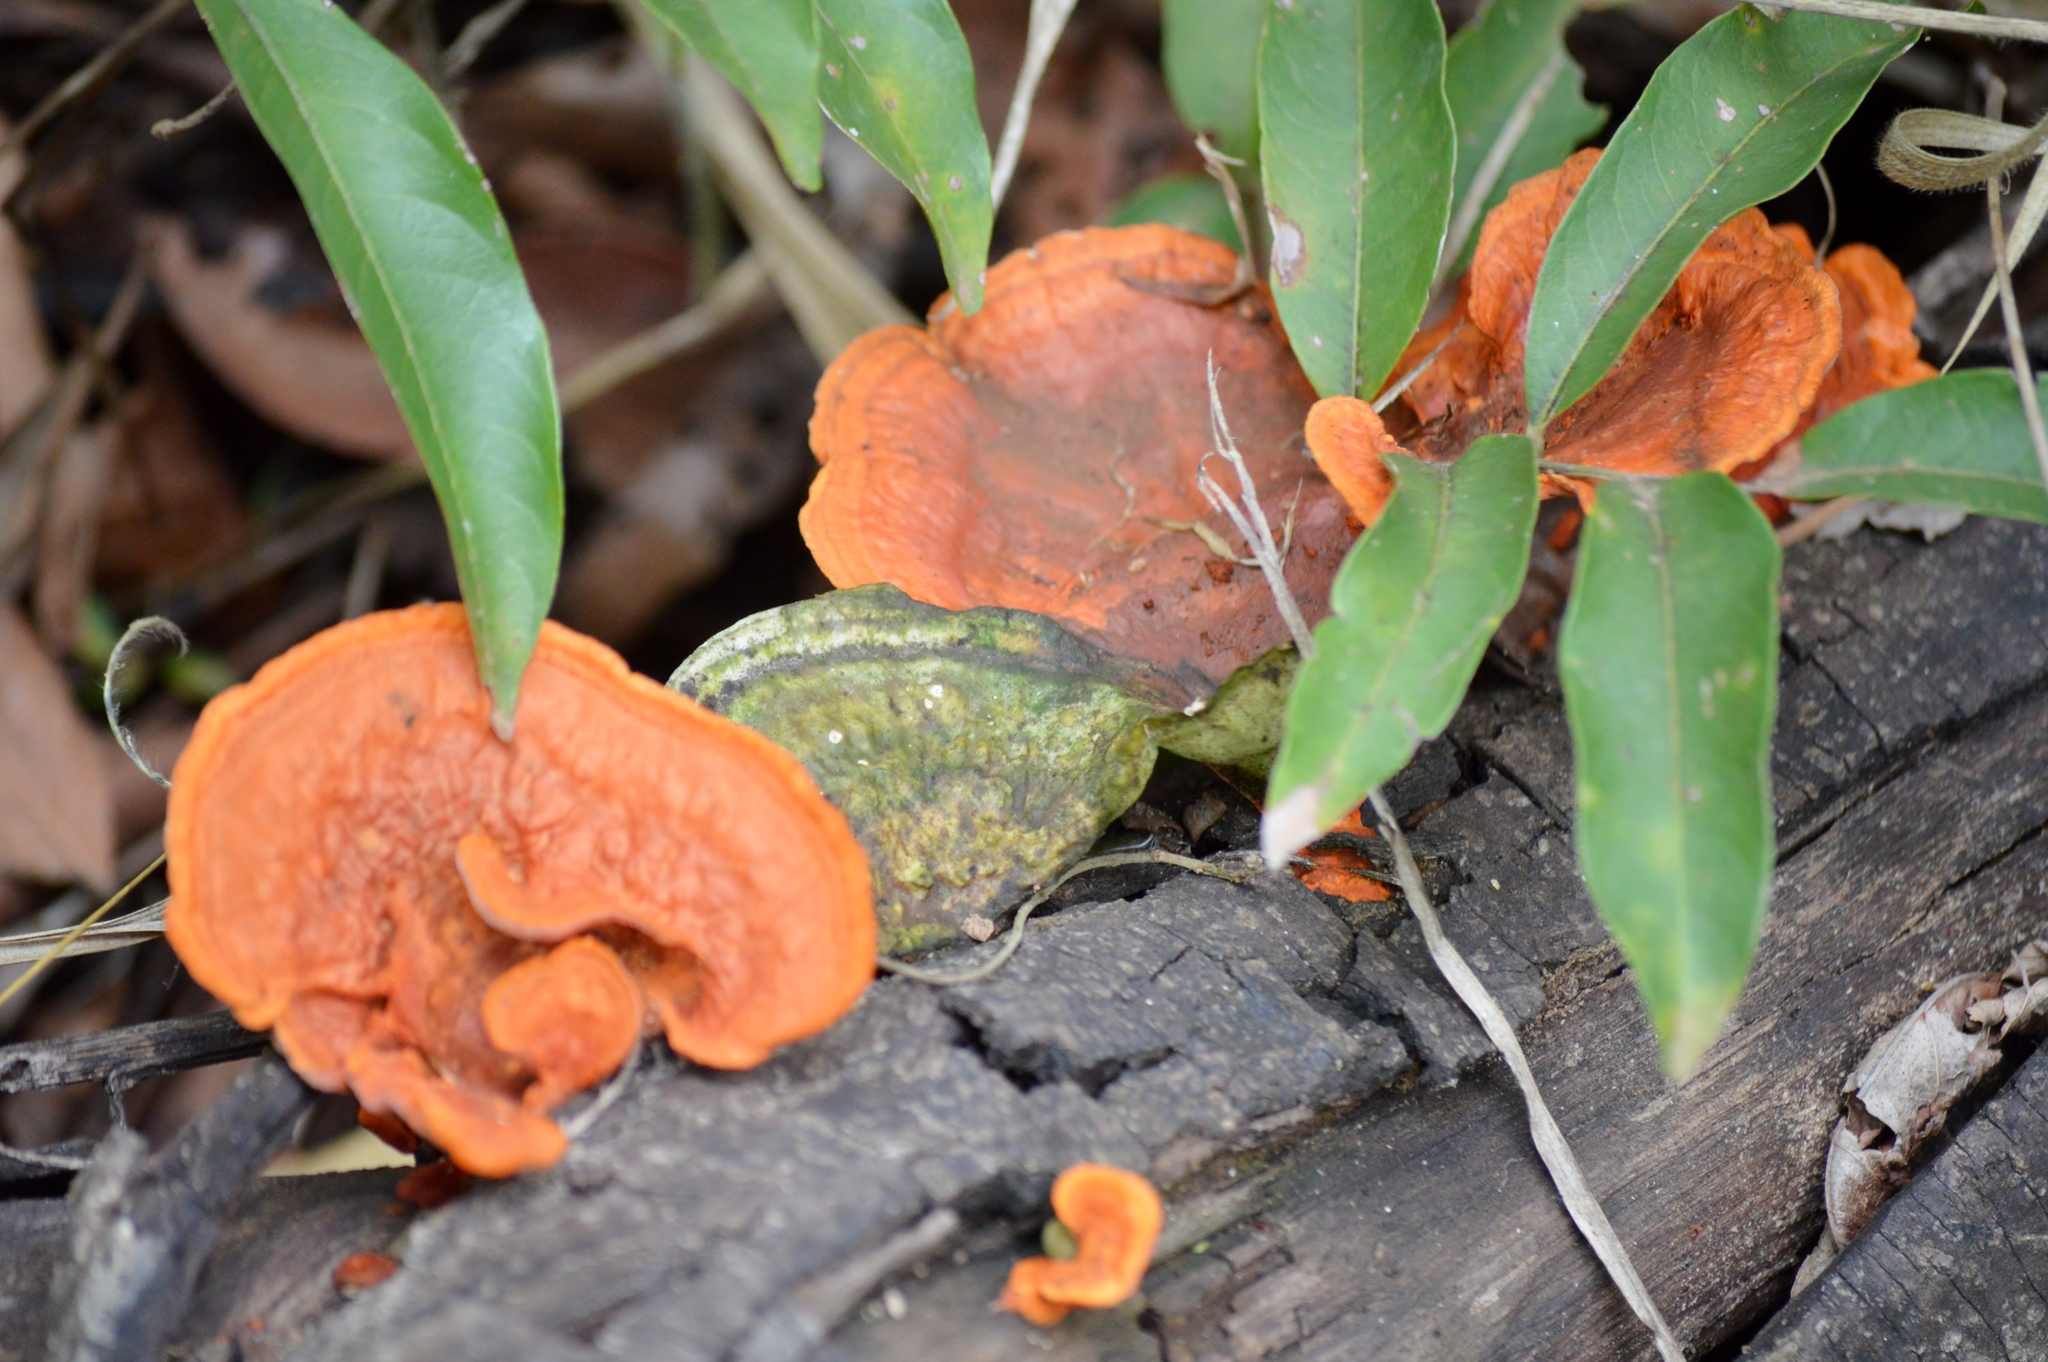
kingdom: Fungi
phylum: Basidiomycota
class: Agaricomycetes
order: Polyporales
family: Polyporaceae
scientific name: Polyporaceae
